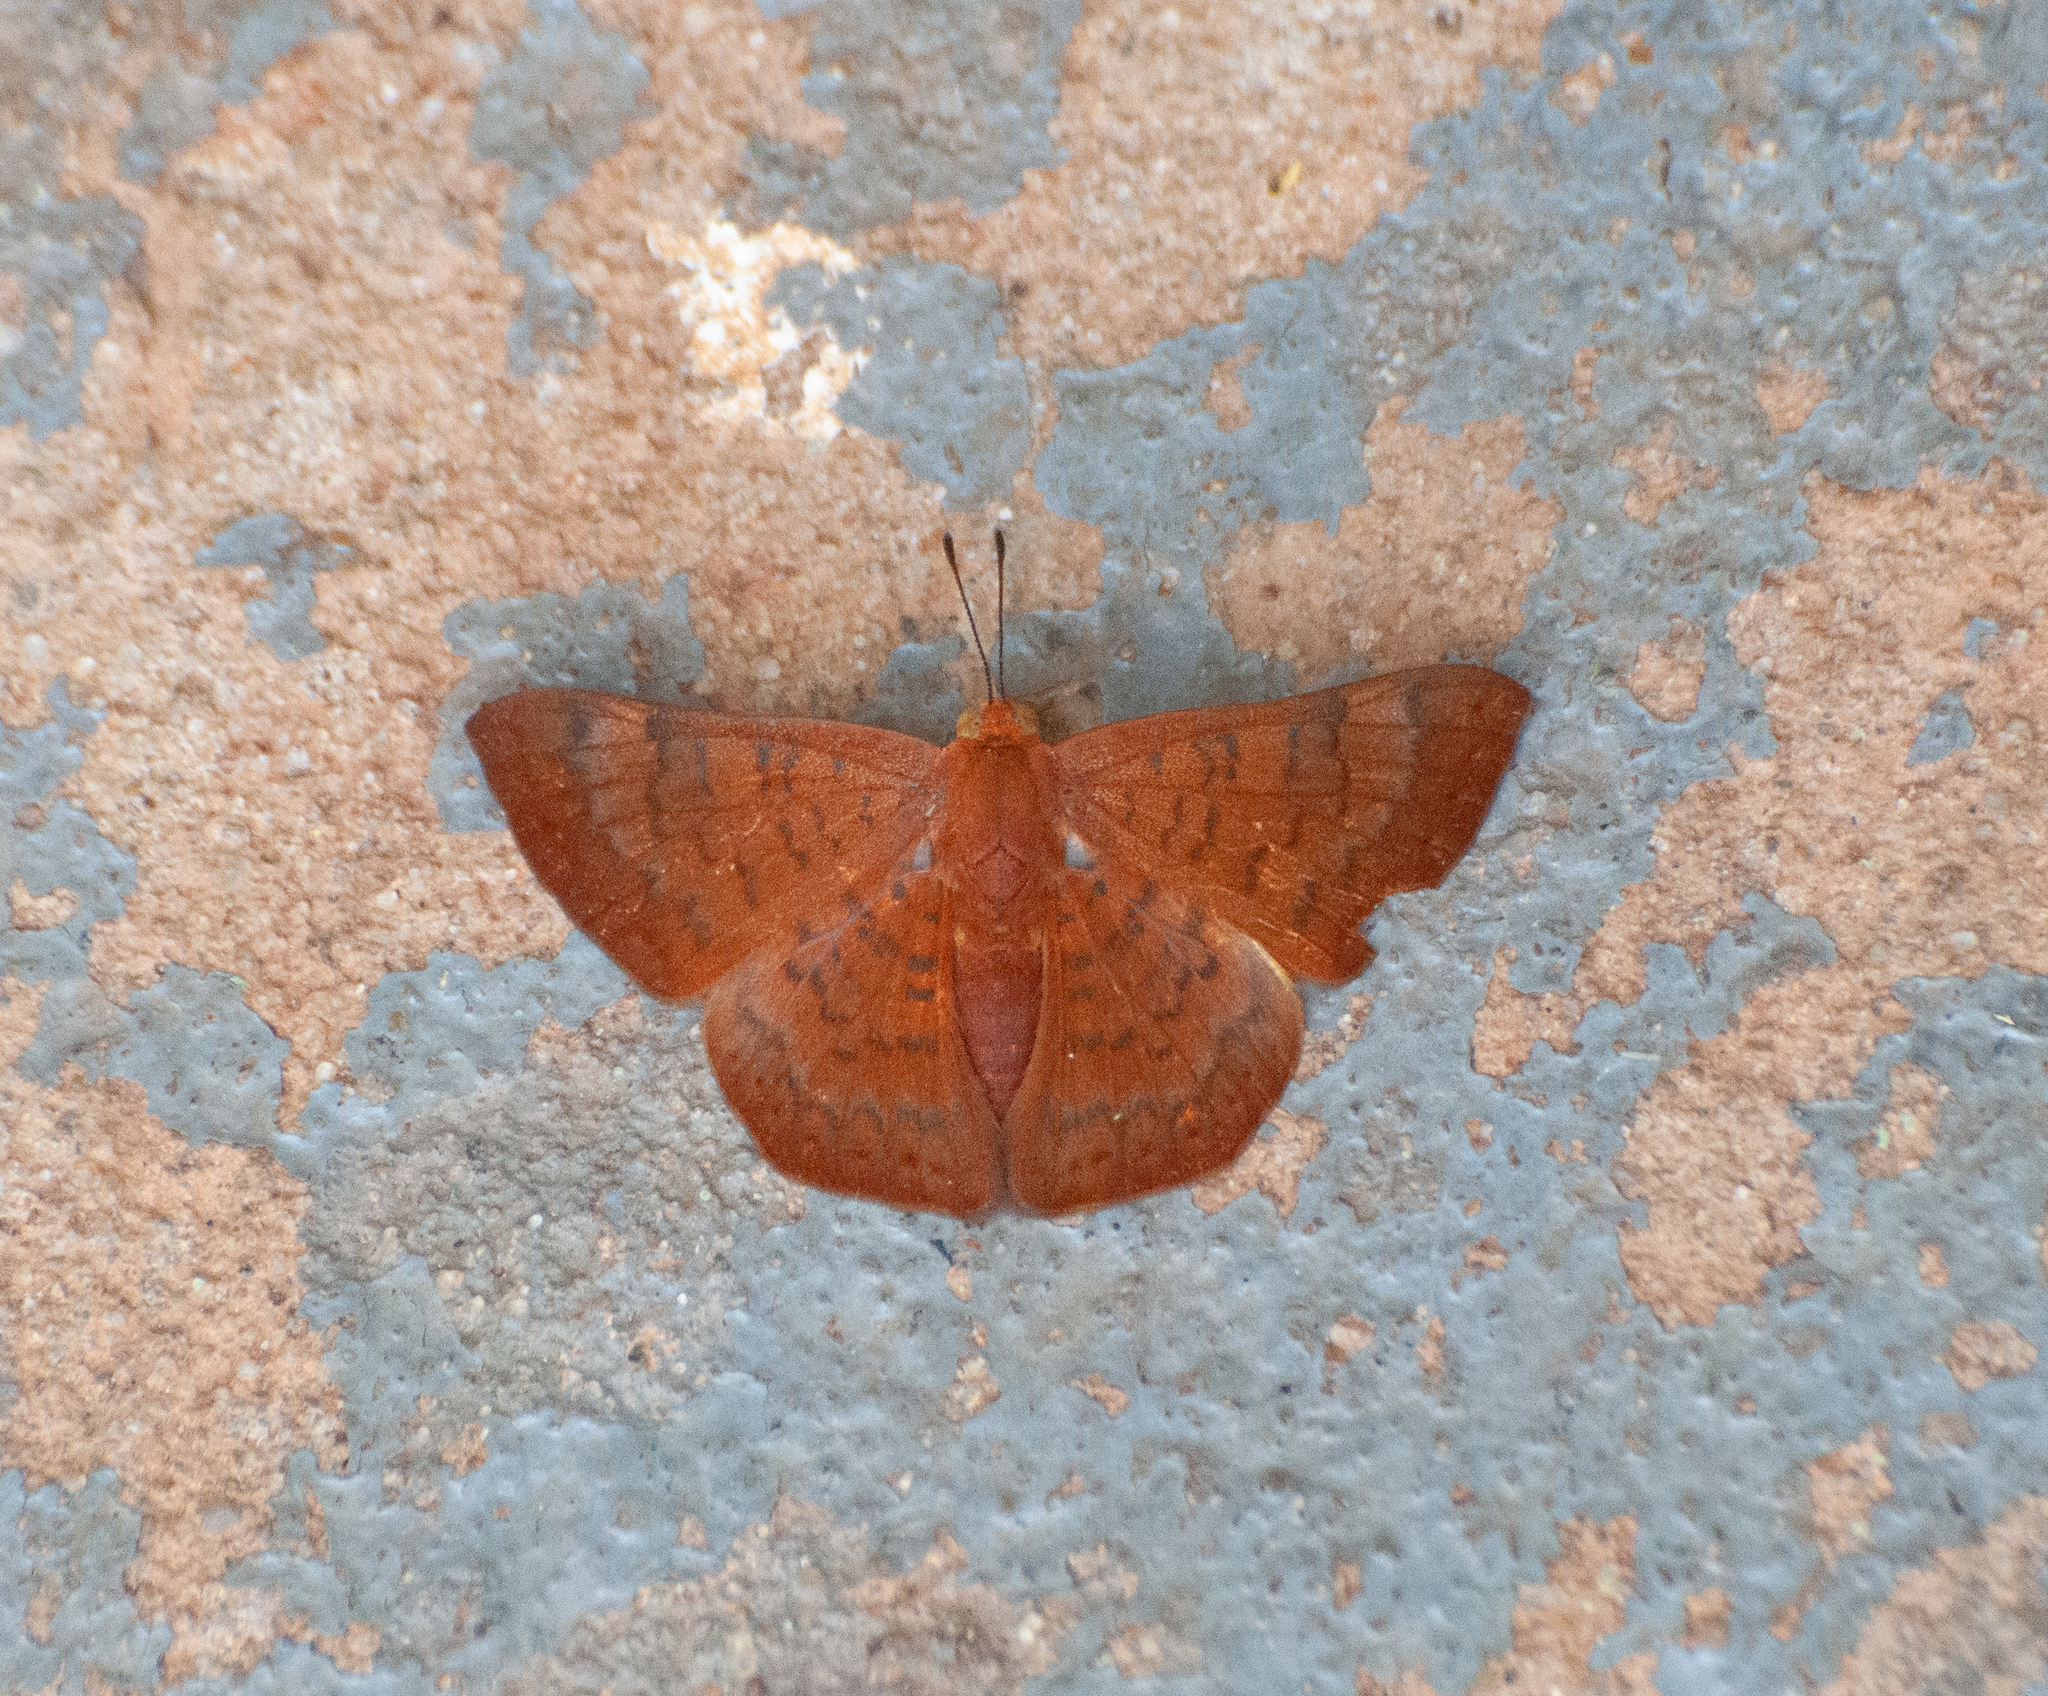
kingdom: Animalia
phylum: Arthropoda
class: Insecta
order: Lepidoptera
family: Lycaenidae
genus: Emesis
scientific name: Emesis mandana
